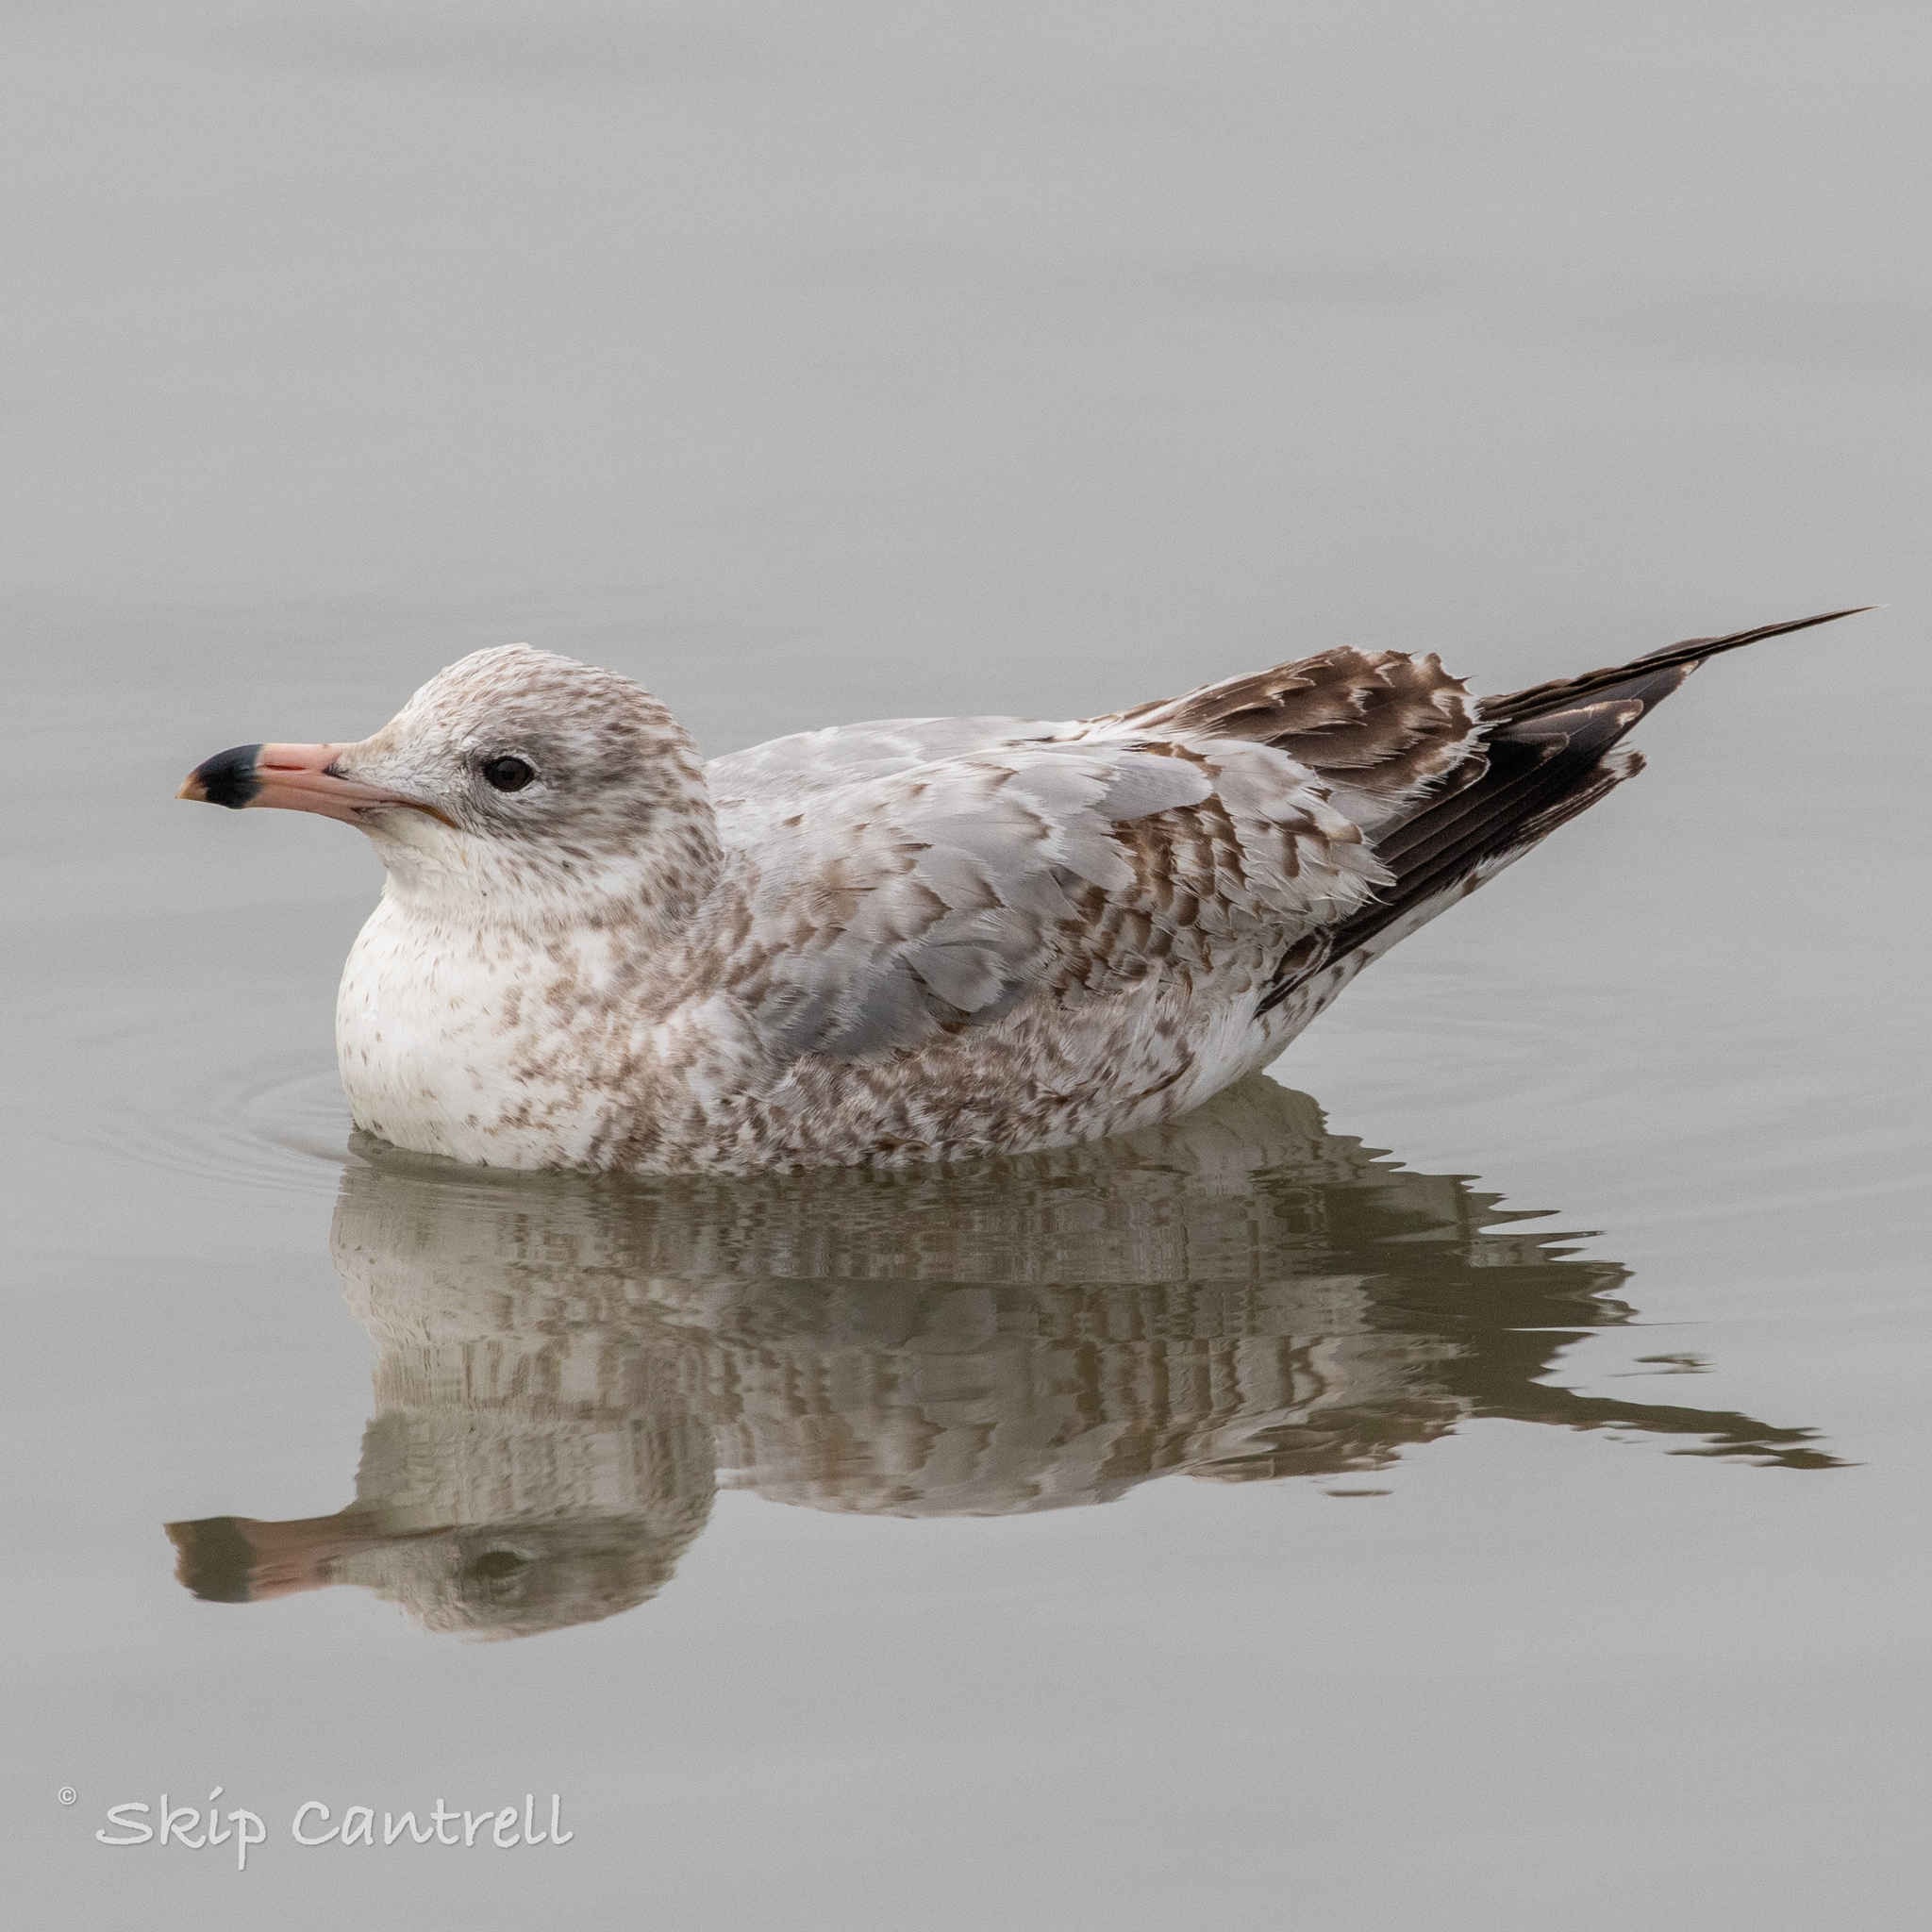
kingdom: Animalia
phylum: Chordata
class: Aves
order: Charadriiformes
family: Laridae
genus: Larus
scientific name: Larus delawarensis
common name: Ring-billed gull
